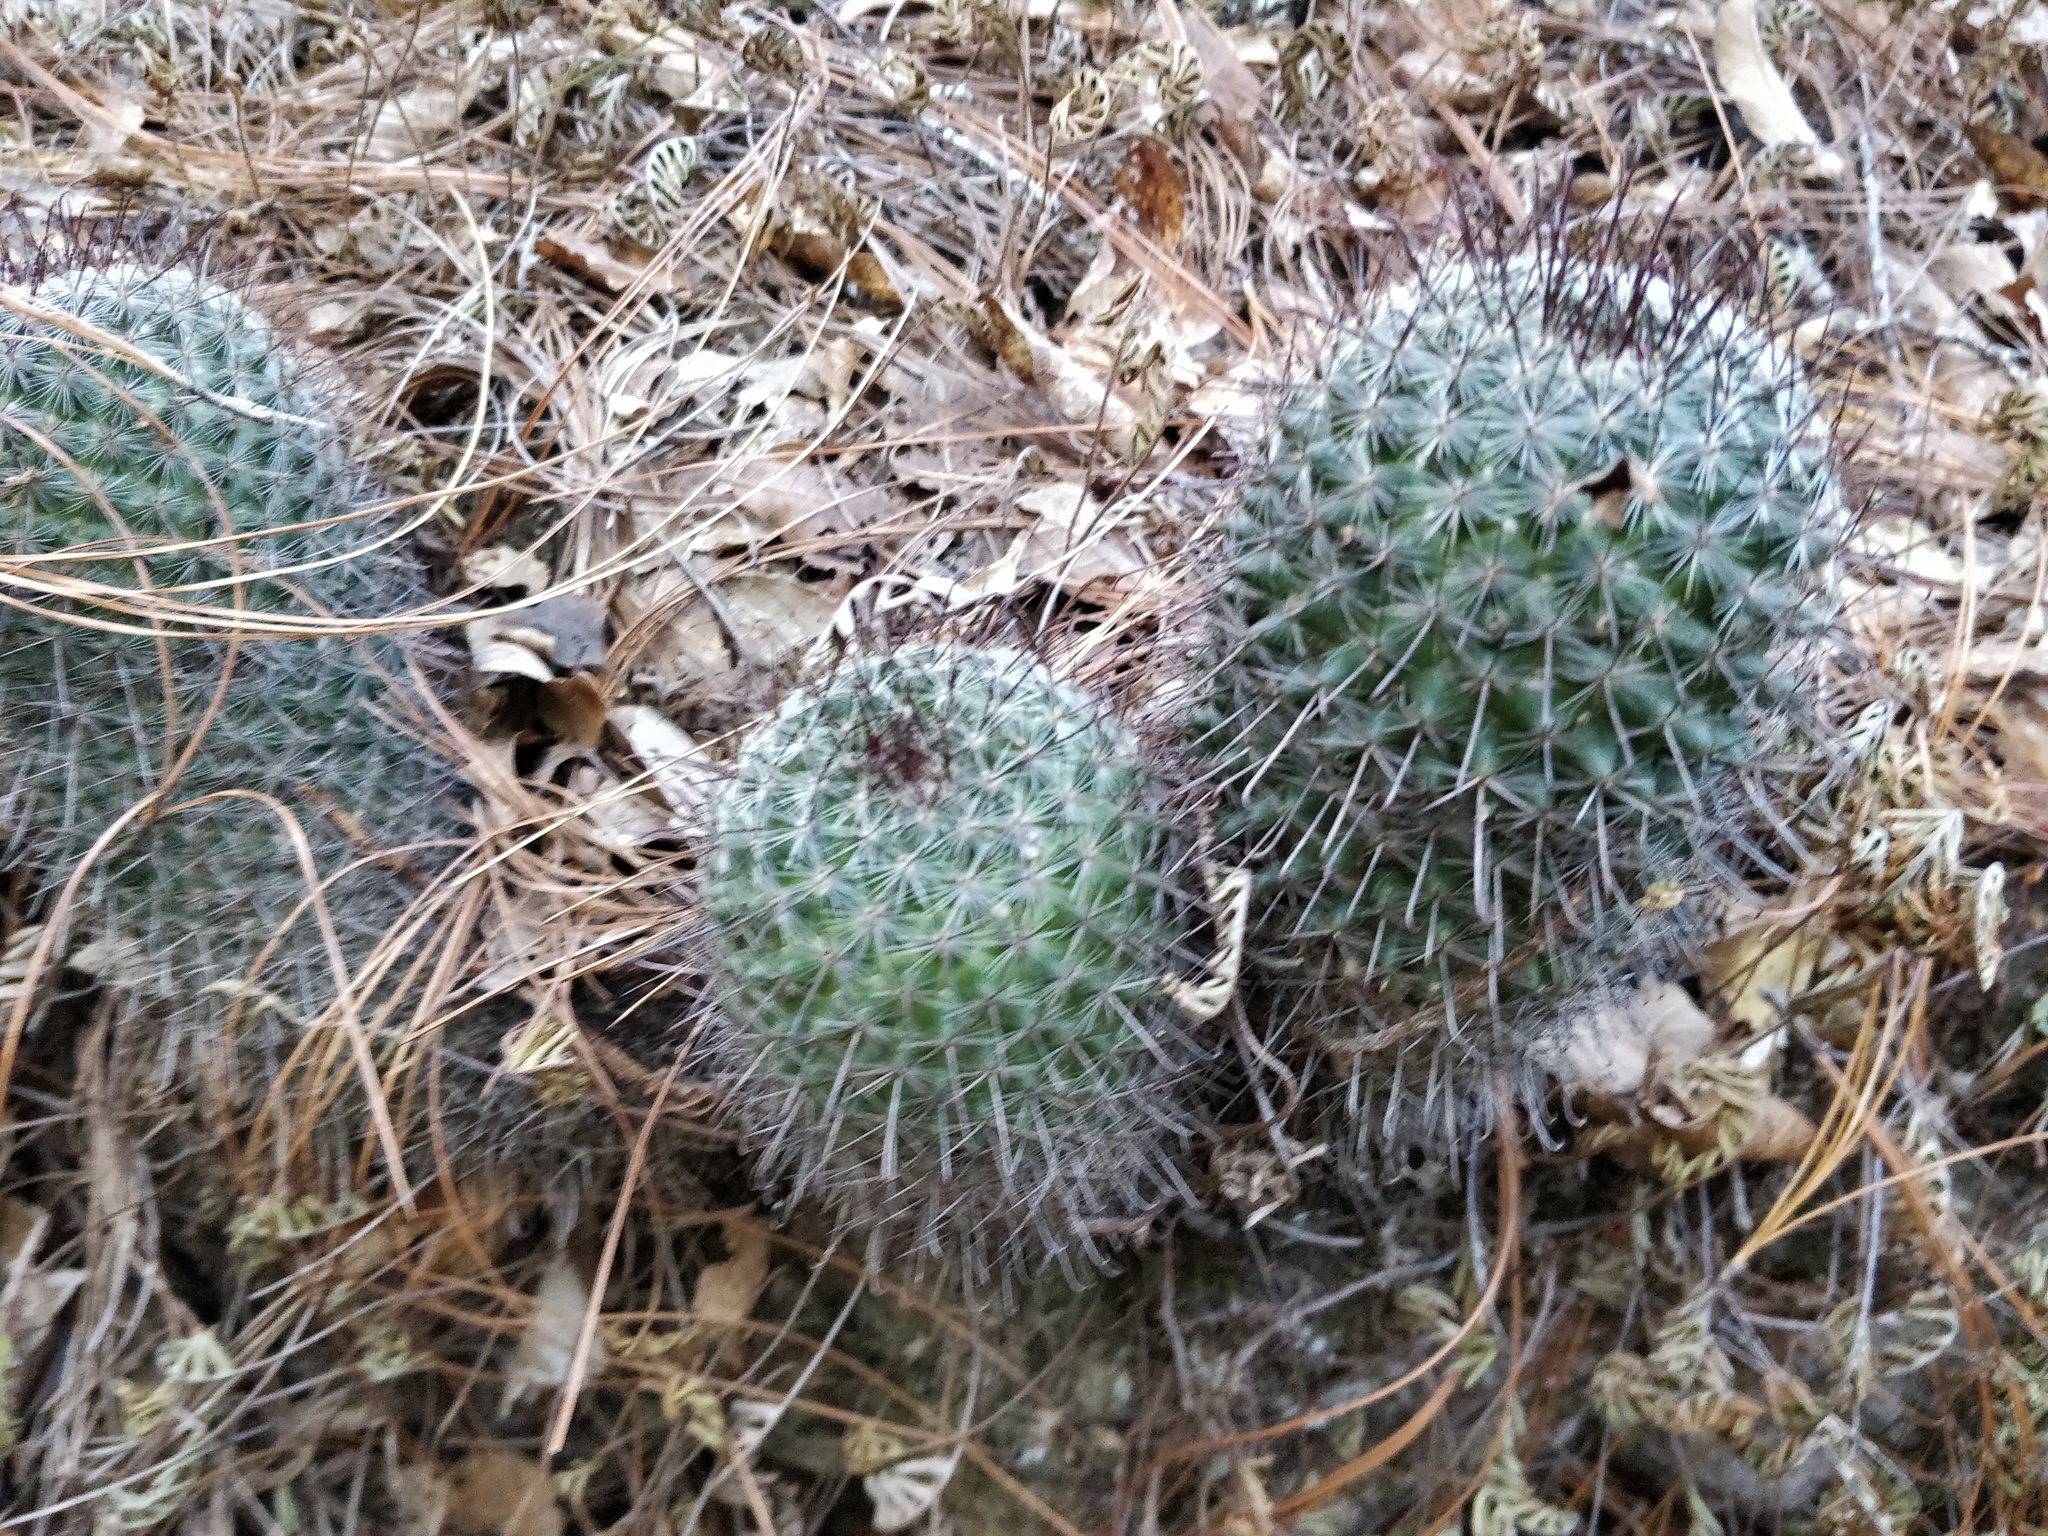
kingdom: Plantae
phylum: Tracheophyta
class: Magnoliopsida
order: Caryophyllales
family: Cactaceae
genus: Mammillaria
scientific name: Mammillaria rekoi
